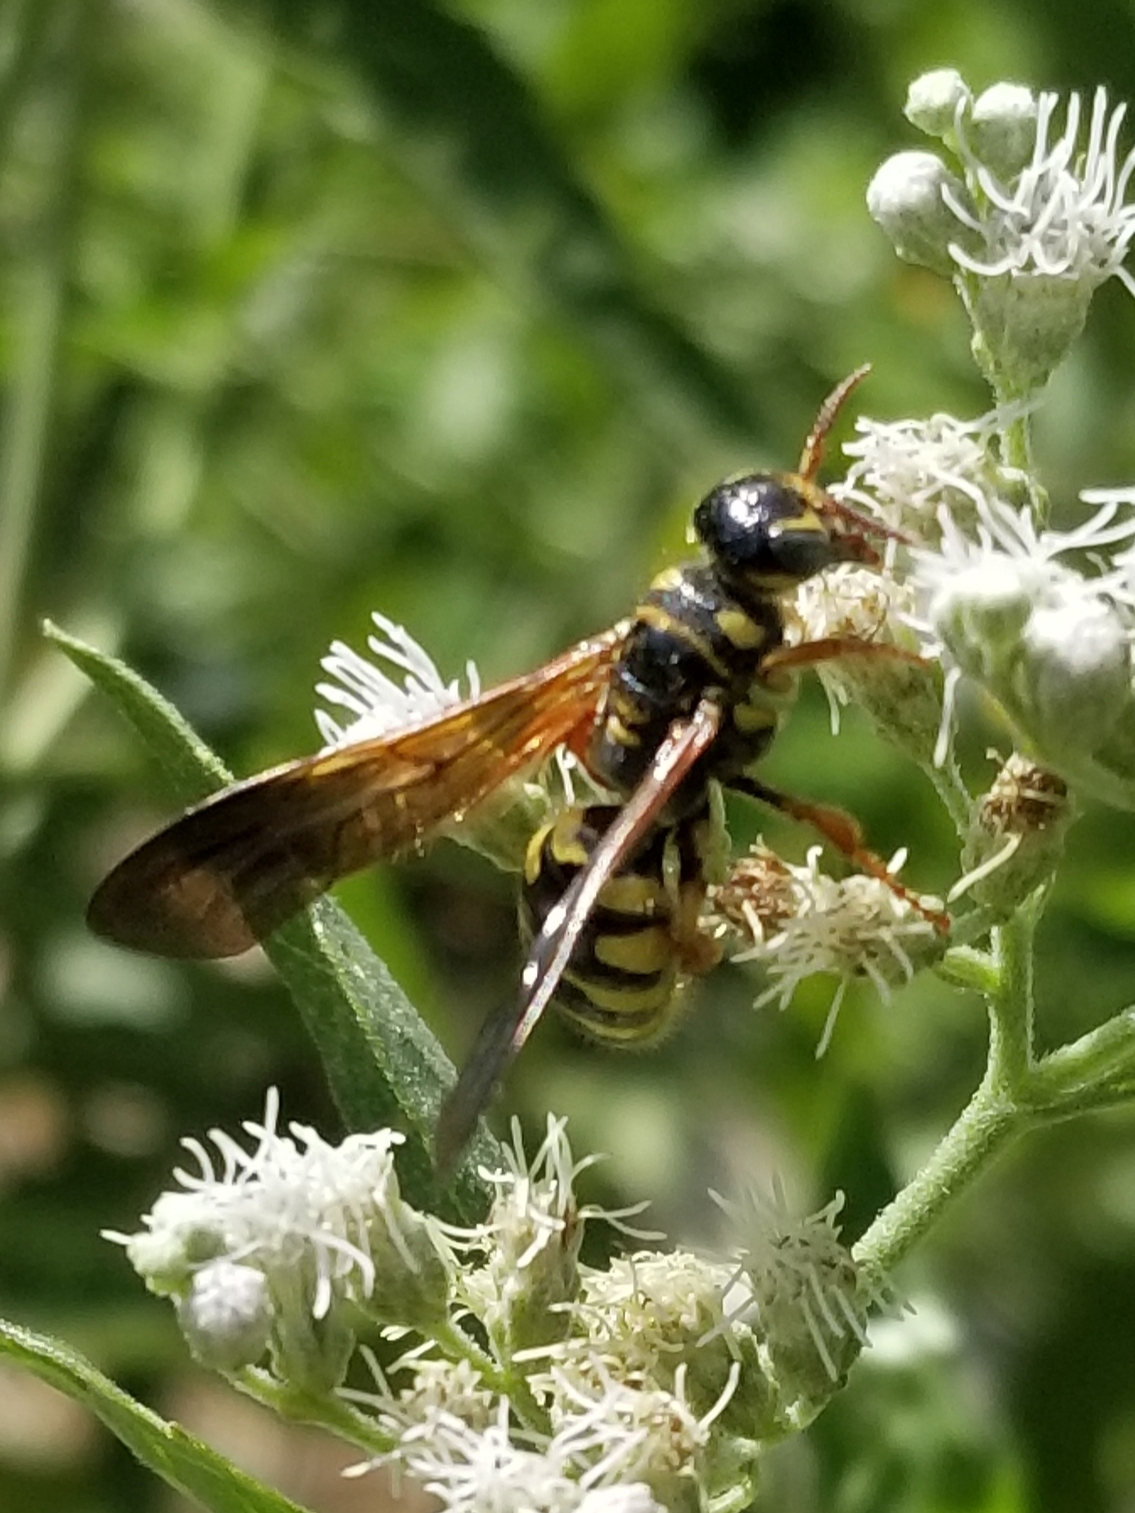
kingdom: Animalia
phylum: Arthropoda
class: Insecta
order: Hymenoptera
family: Tiphiidae
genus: Myzinum
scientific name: Myzinum quinquecinctum
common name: Five-banded thynnid wasp
